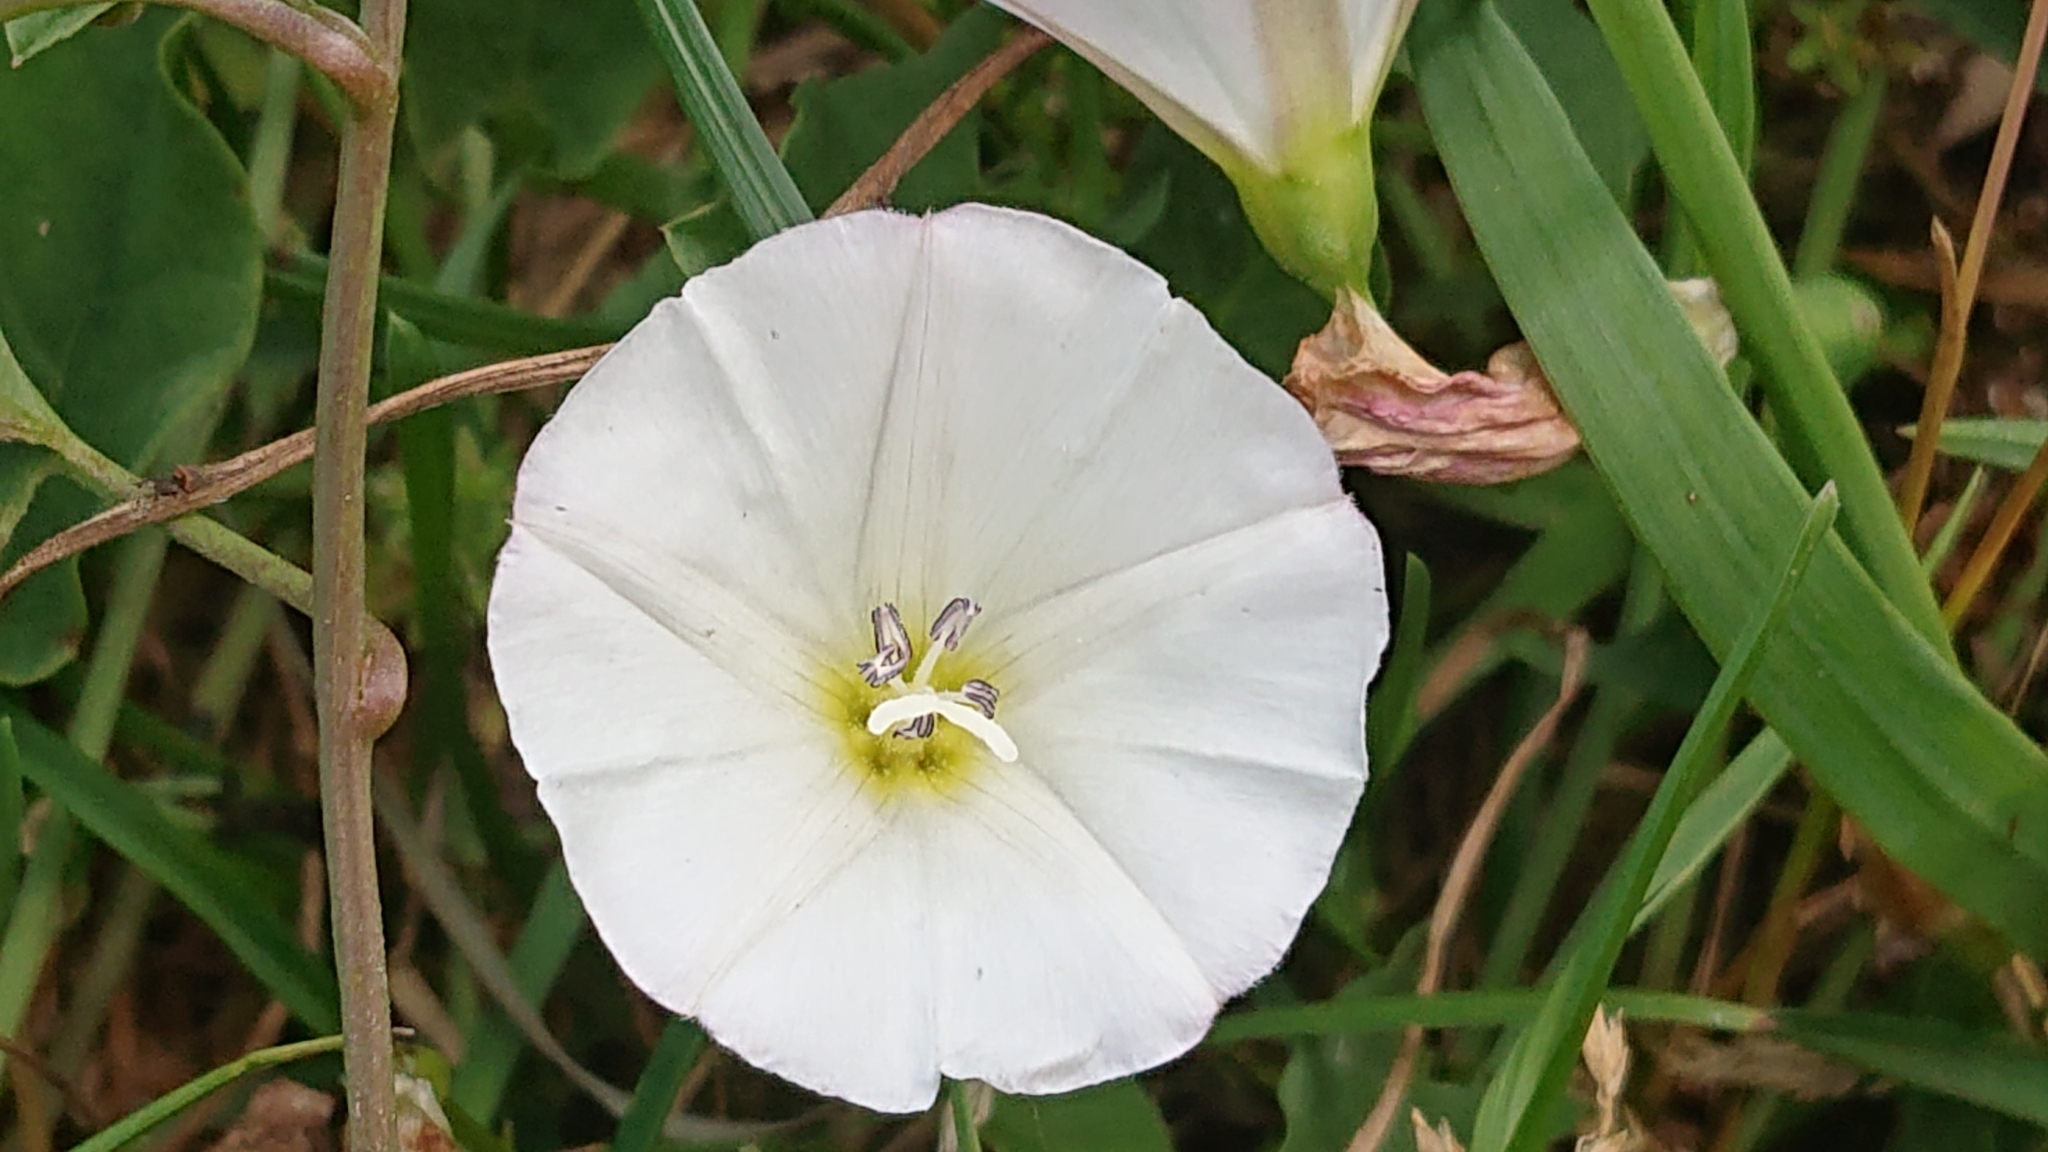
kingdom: Plantae
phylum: Tracheophyta
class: Magnoliopsida
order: Solanales
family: Convolvulaceae
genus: Convolvulus
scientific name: Convolvulus arvensis
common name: Field bindweed
